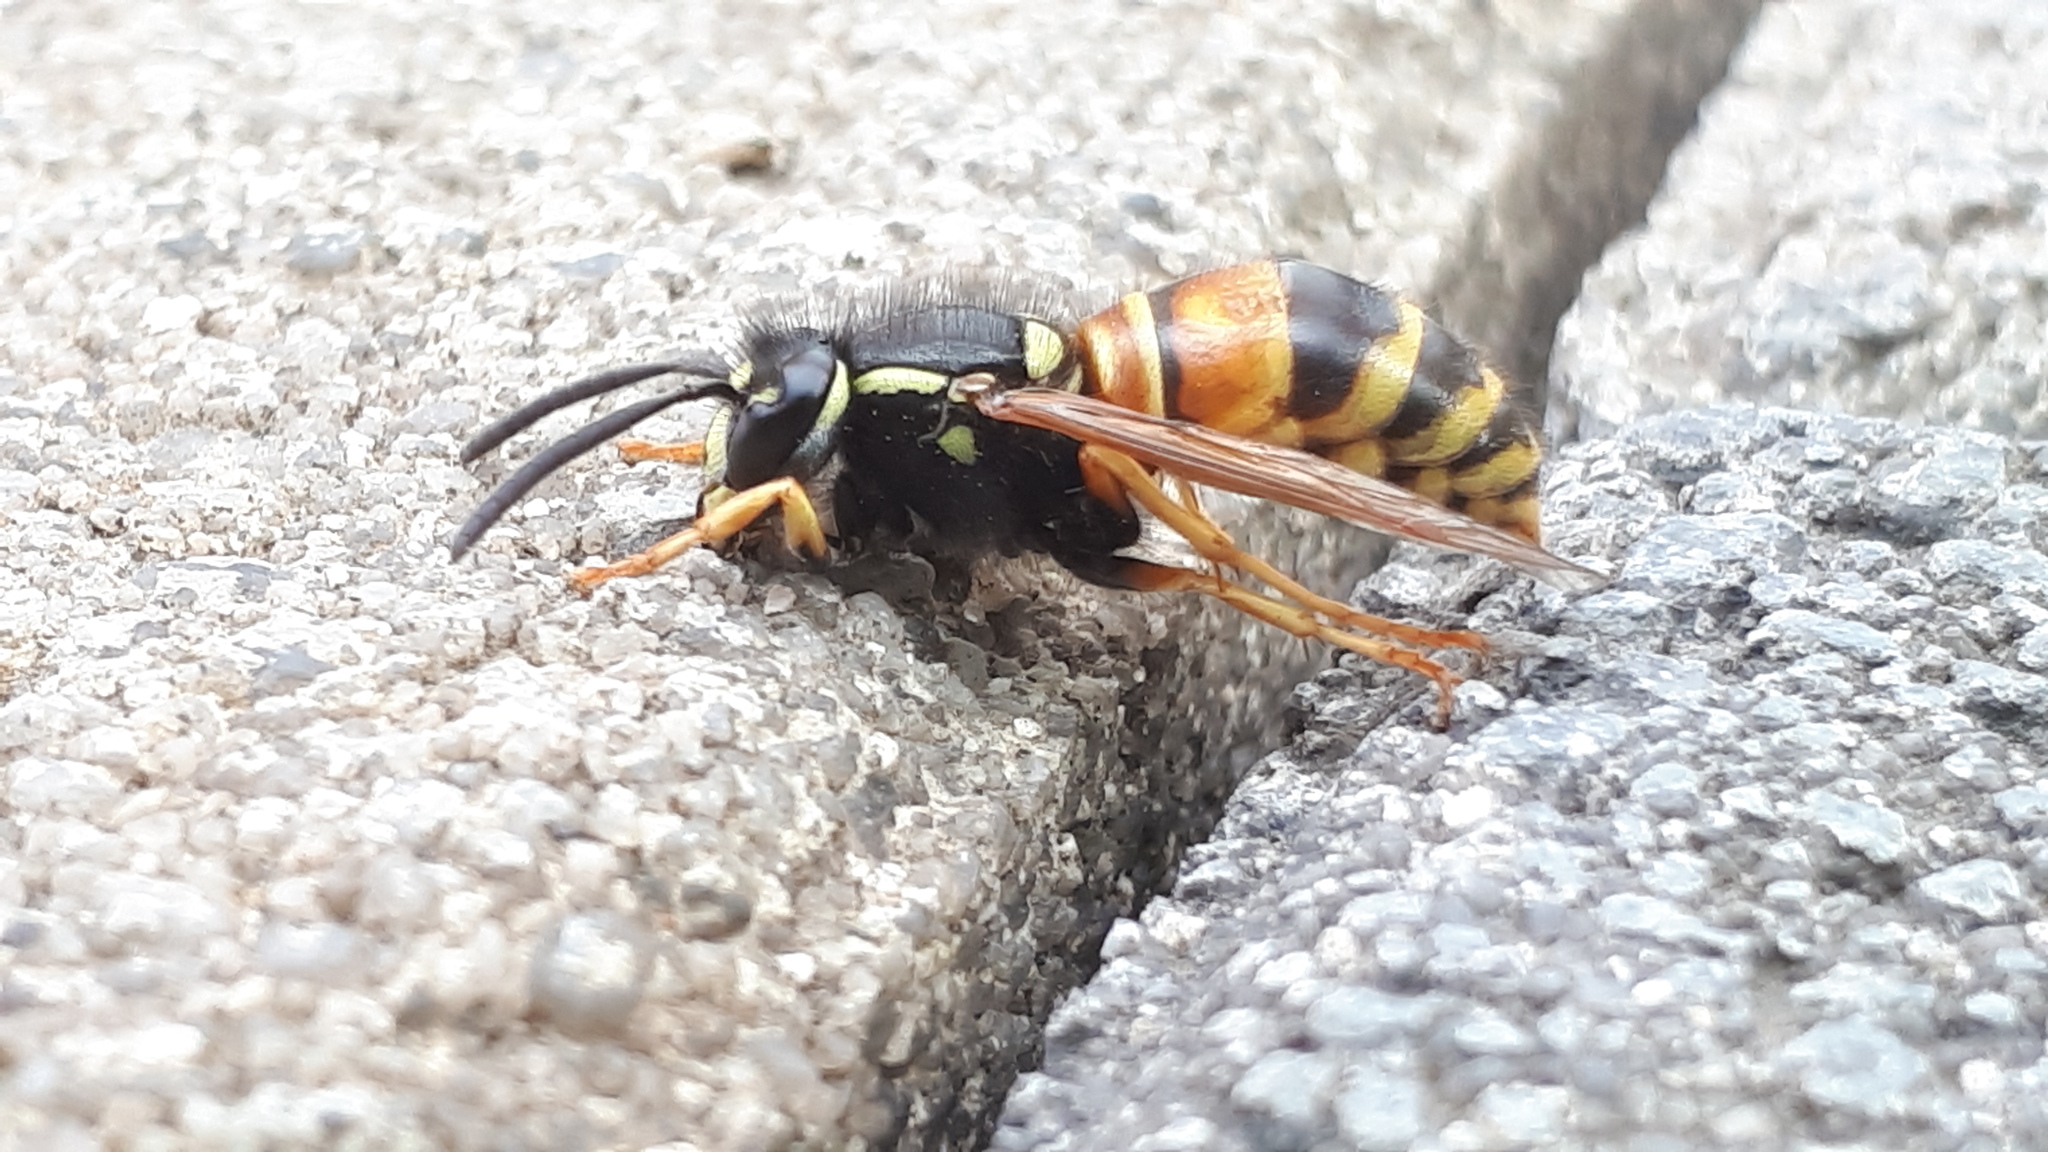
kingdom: Animalia
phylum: Arthropoda
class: Insecta
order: Hymenoptera
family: Vespidae
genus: Vespula
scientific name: Vespula rufa
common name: Red wasp
